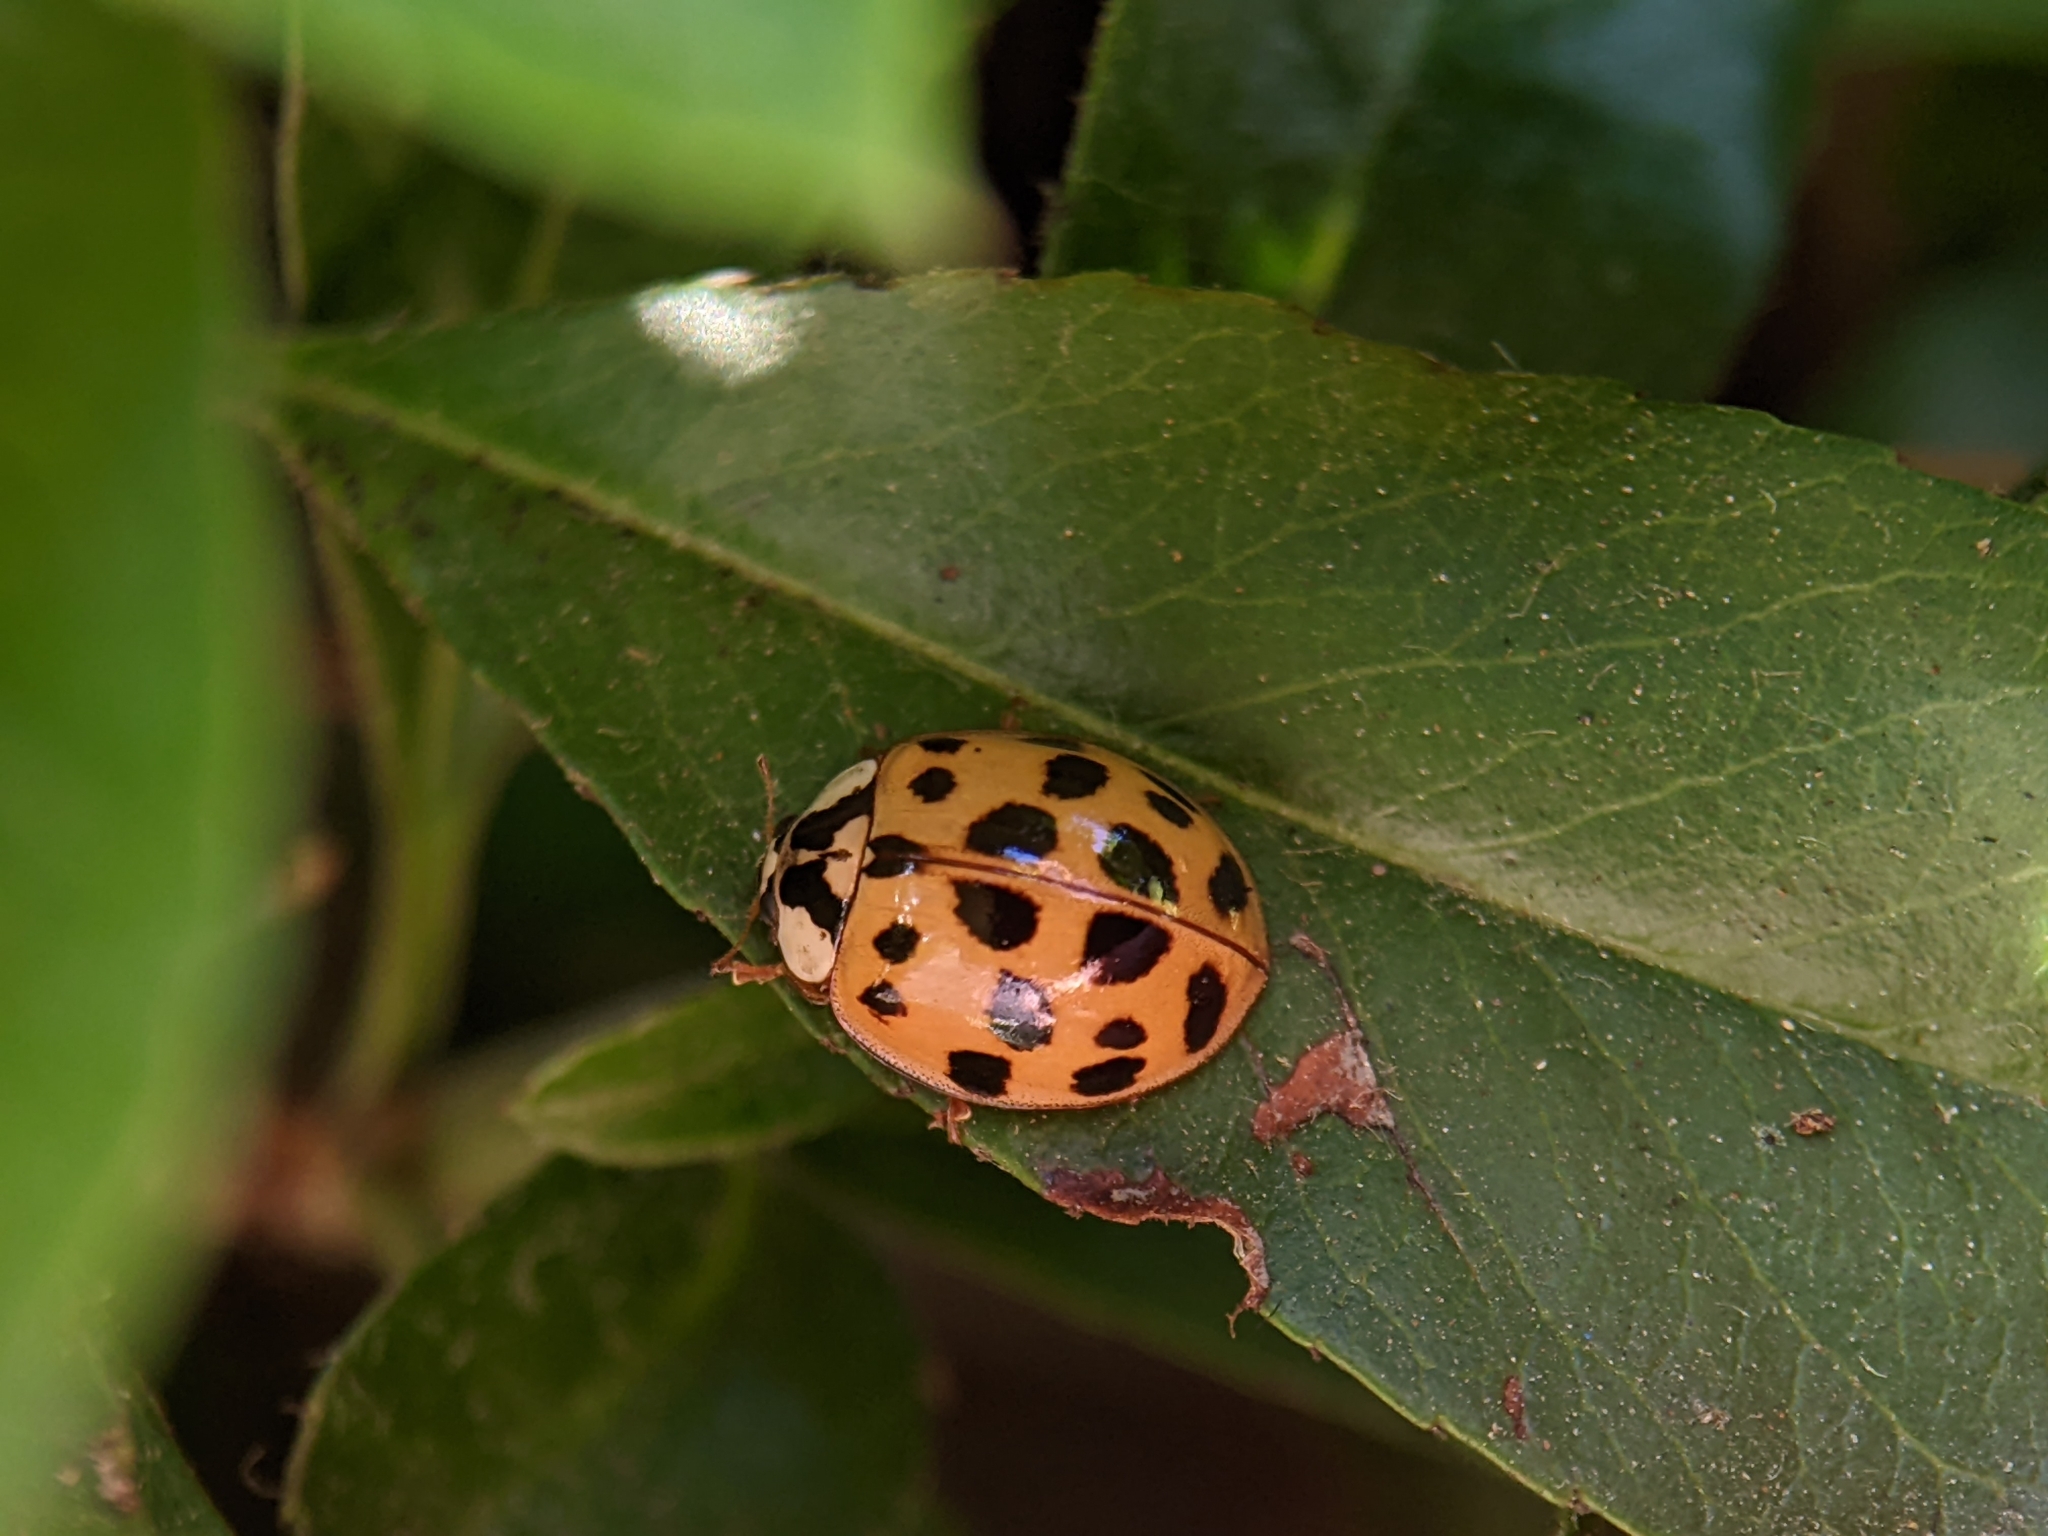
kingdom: Animalia
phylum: Arthropoda
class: Insecta
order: Coleoptera
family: Coccinellidae
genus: Harmonia
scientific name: Harmonia axyridis
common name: Harlequin ladybird
